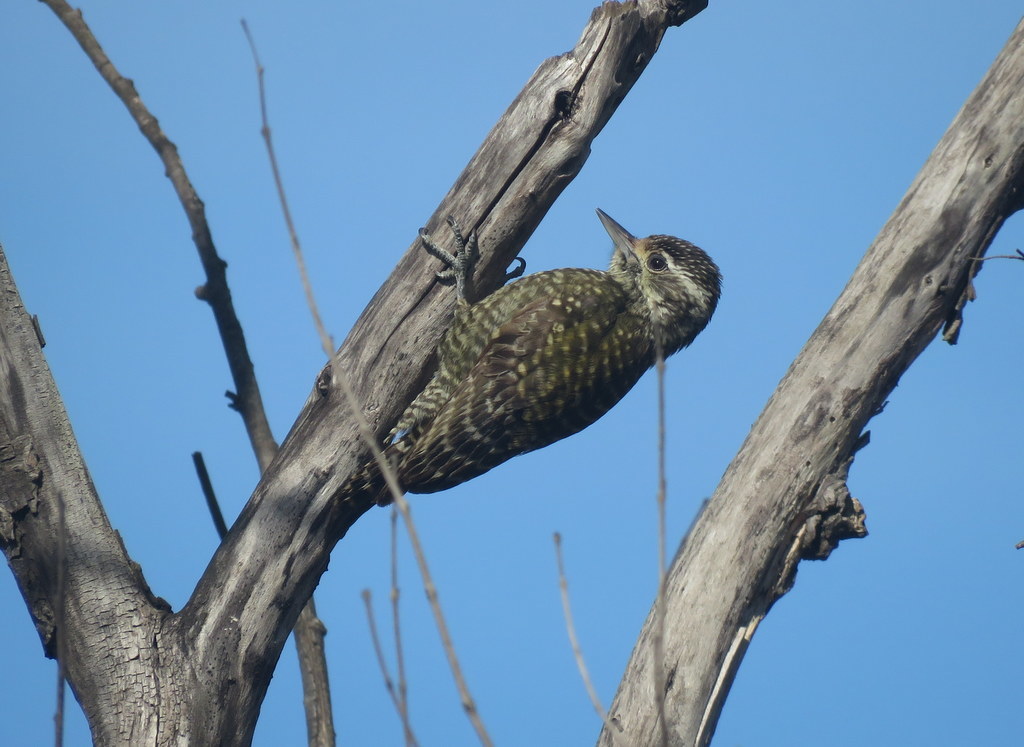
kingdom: Animalia
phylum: Chordata
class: Aves
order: Piciformes
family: Picidae
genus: Veniliornis
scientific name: Veniliornis spilogaster
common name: White-spotted woodpecker
